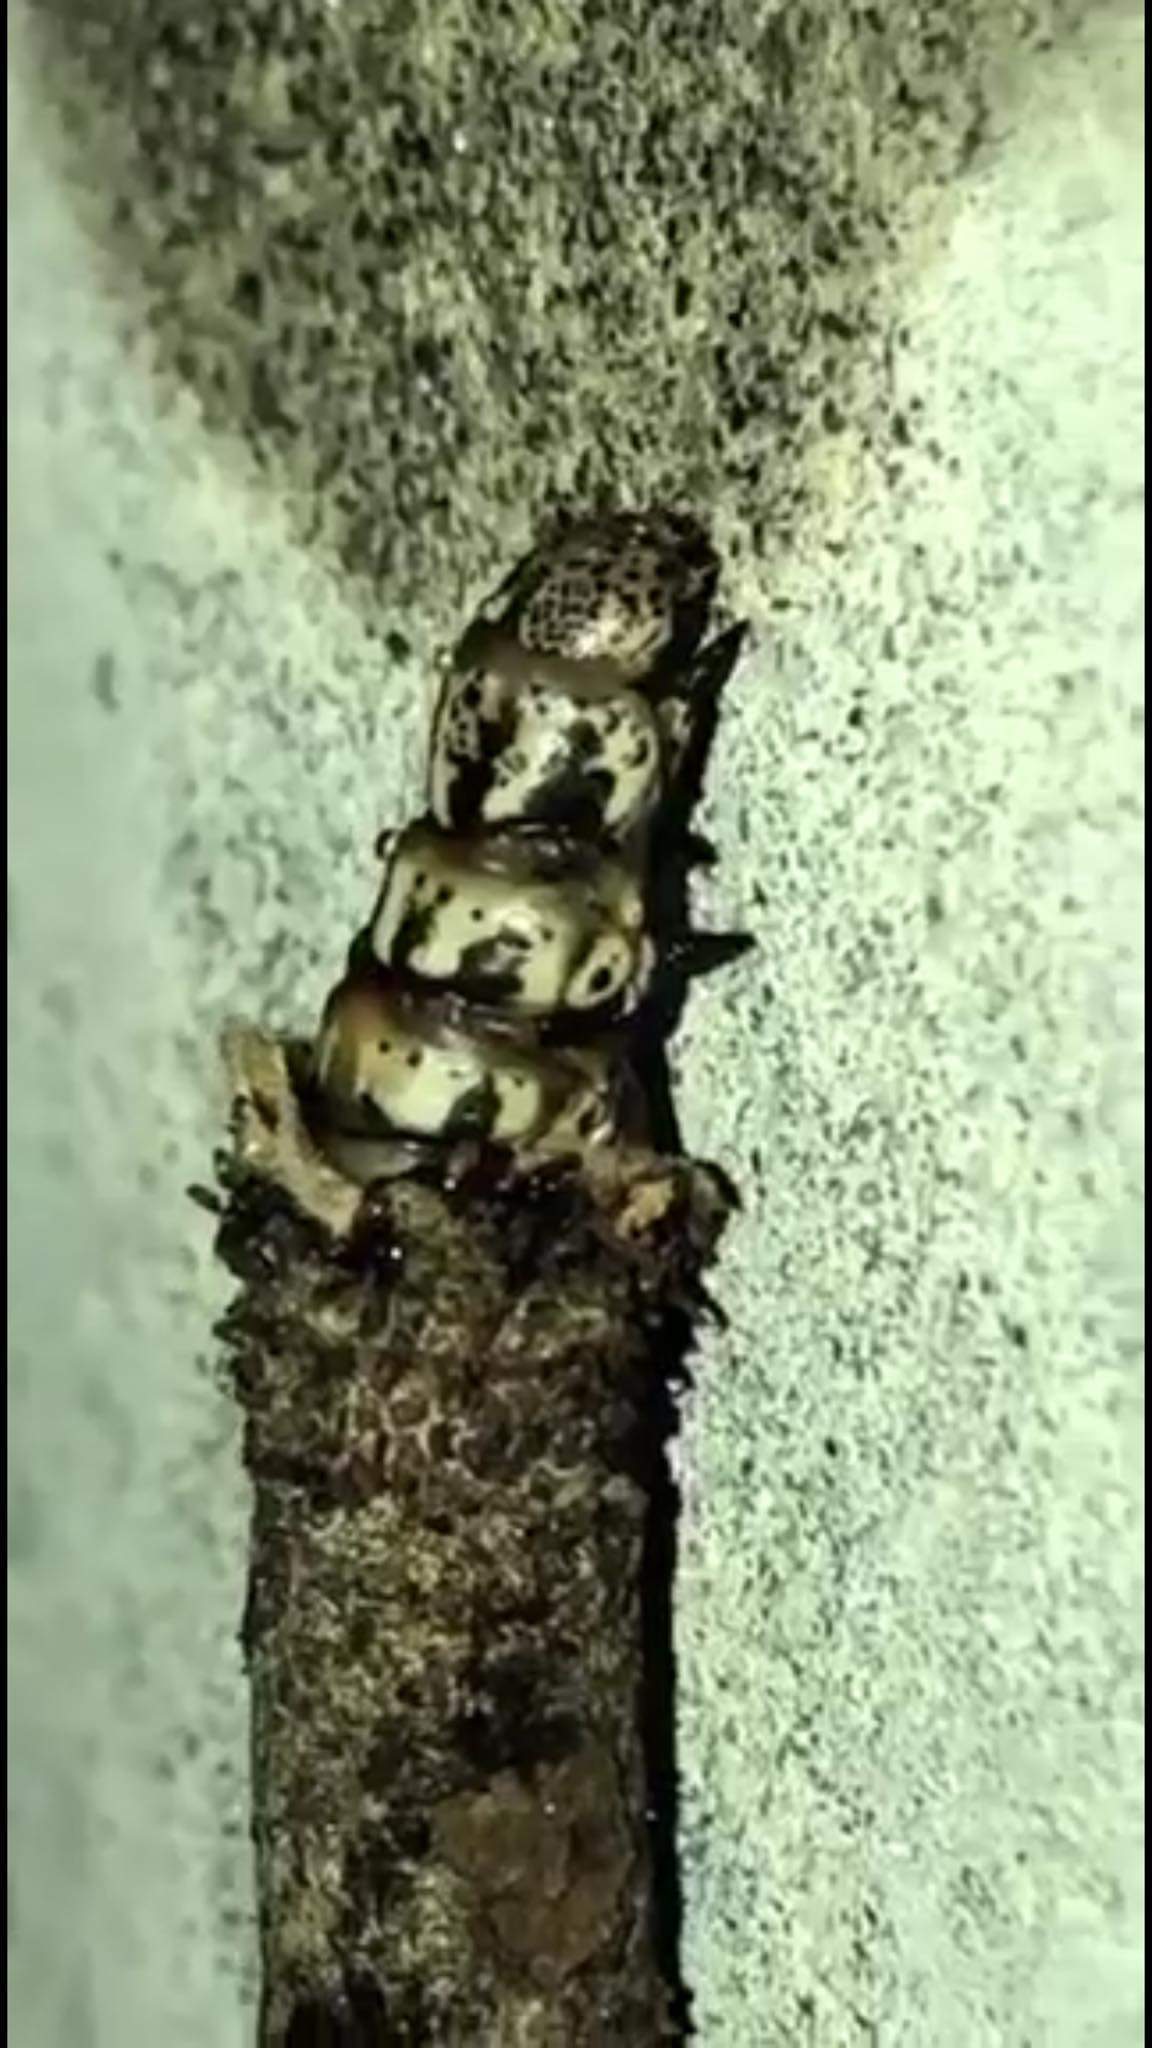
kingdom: Animalia
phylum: Arthropoda
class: Insecta
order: Lepidoptera
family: Psychidae
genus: Liothula
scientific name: Liothula omnivora
